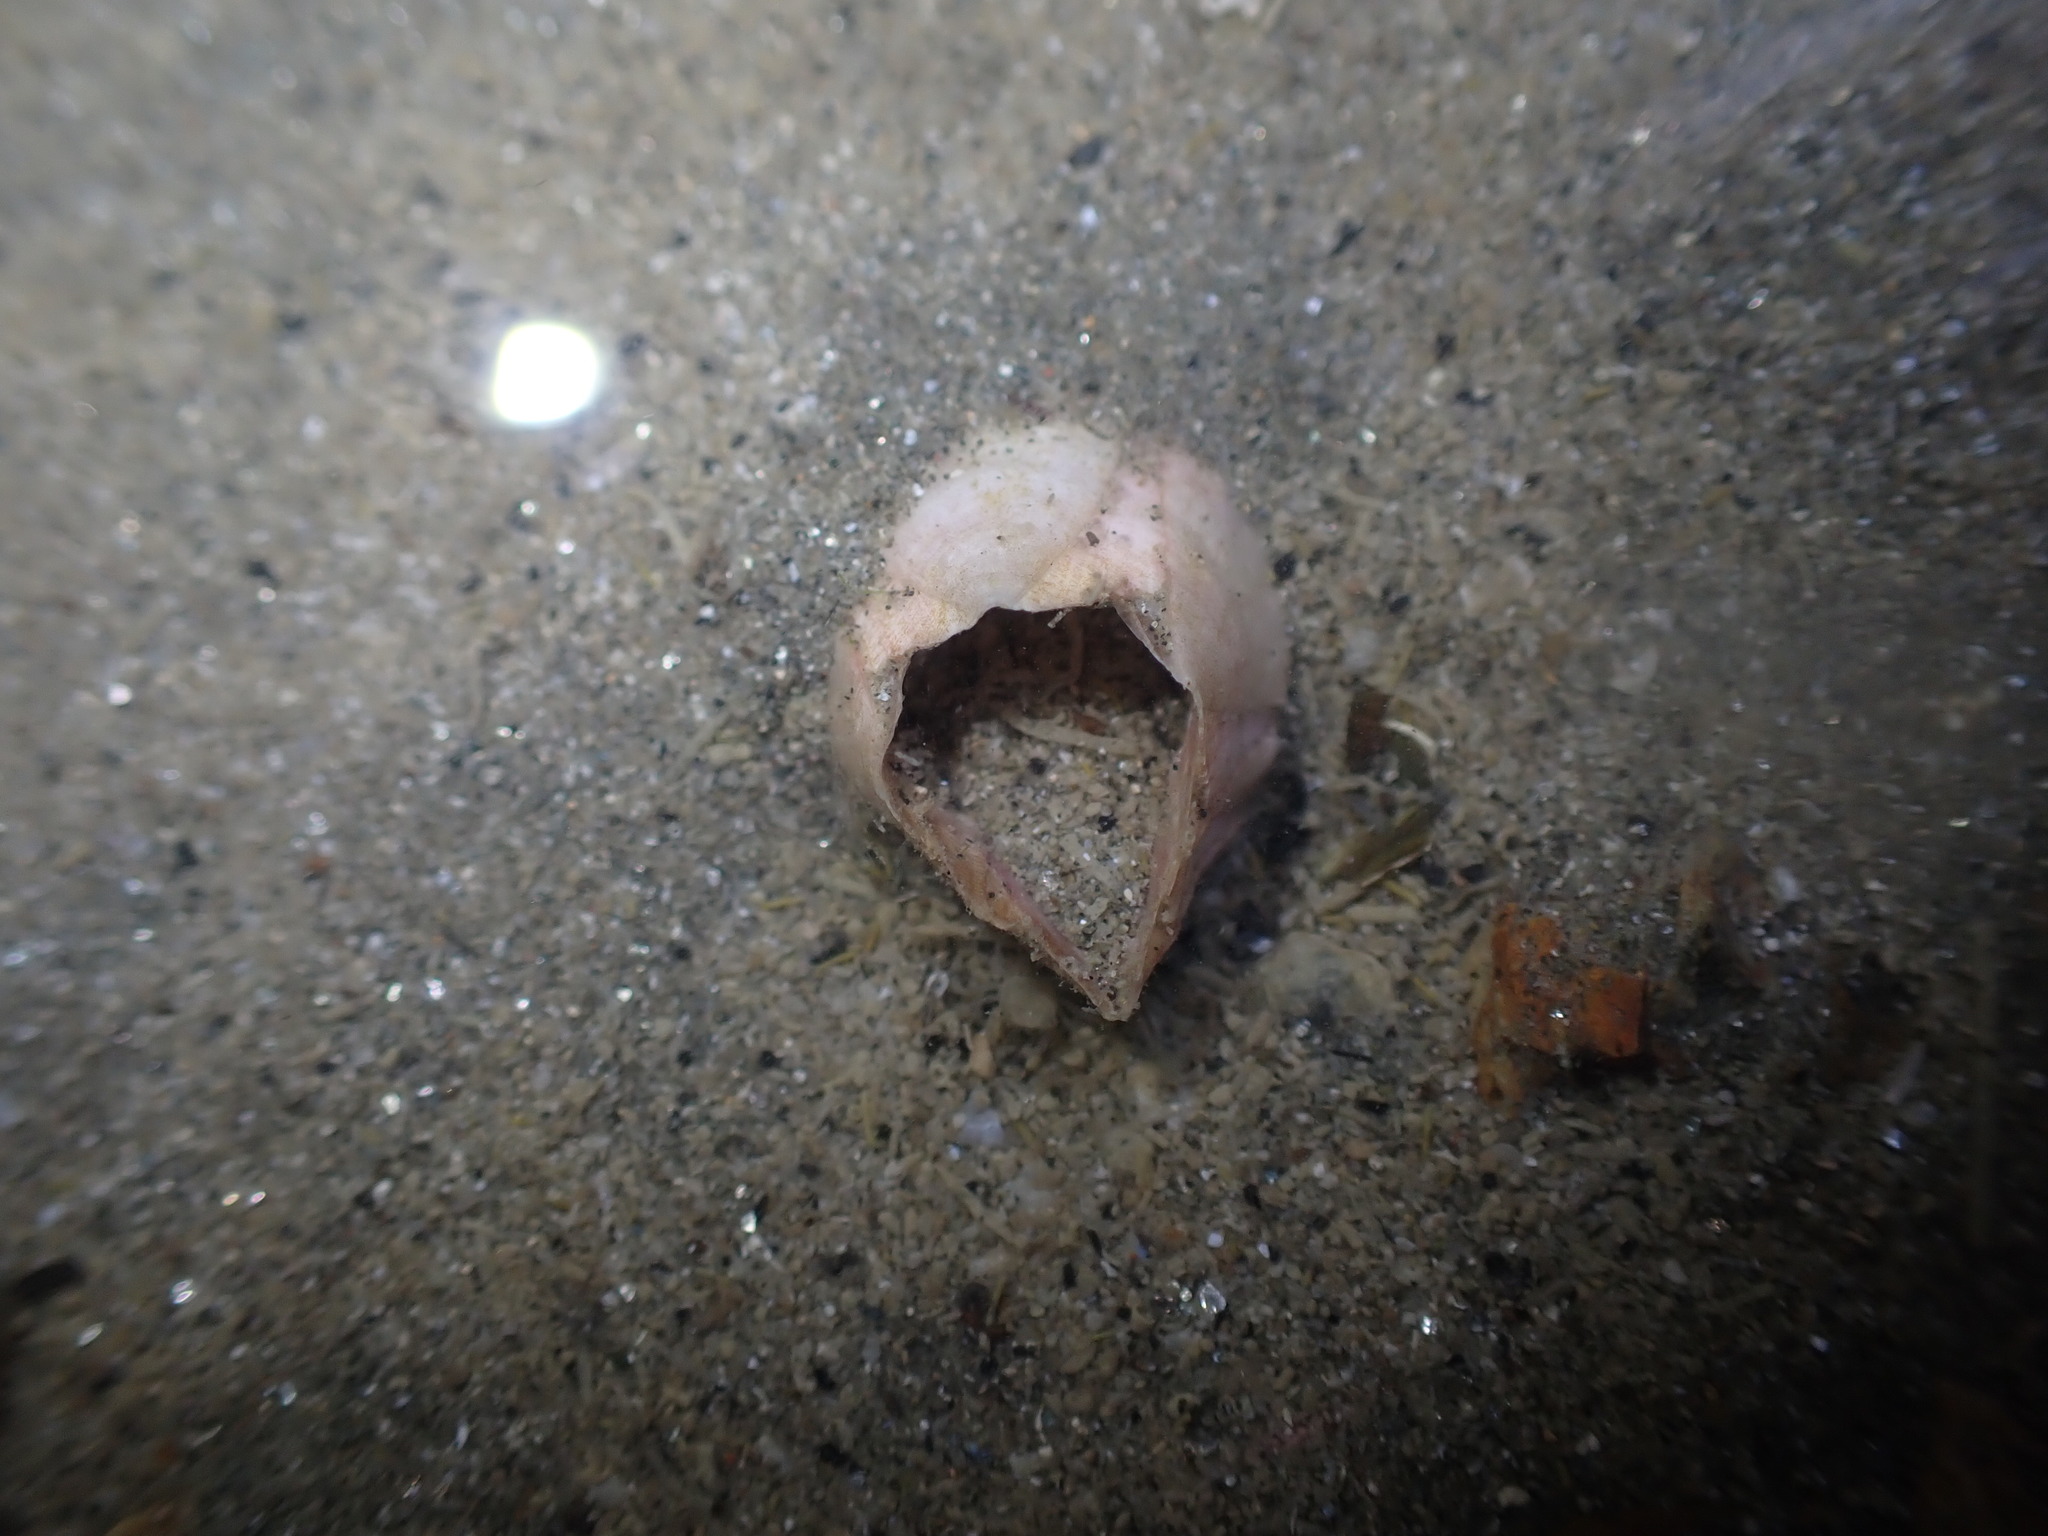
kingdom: Animalia
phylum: Arthropoda
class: Maxillopoda
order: Sessilia
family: Balanidae
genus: Notomegabalanus
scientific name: Notomegabalanus decorus
